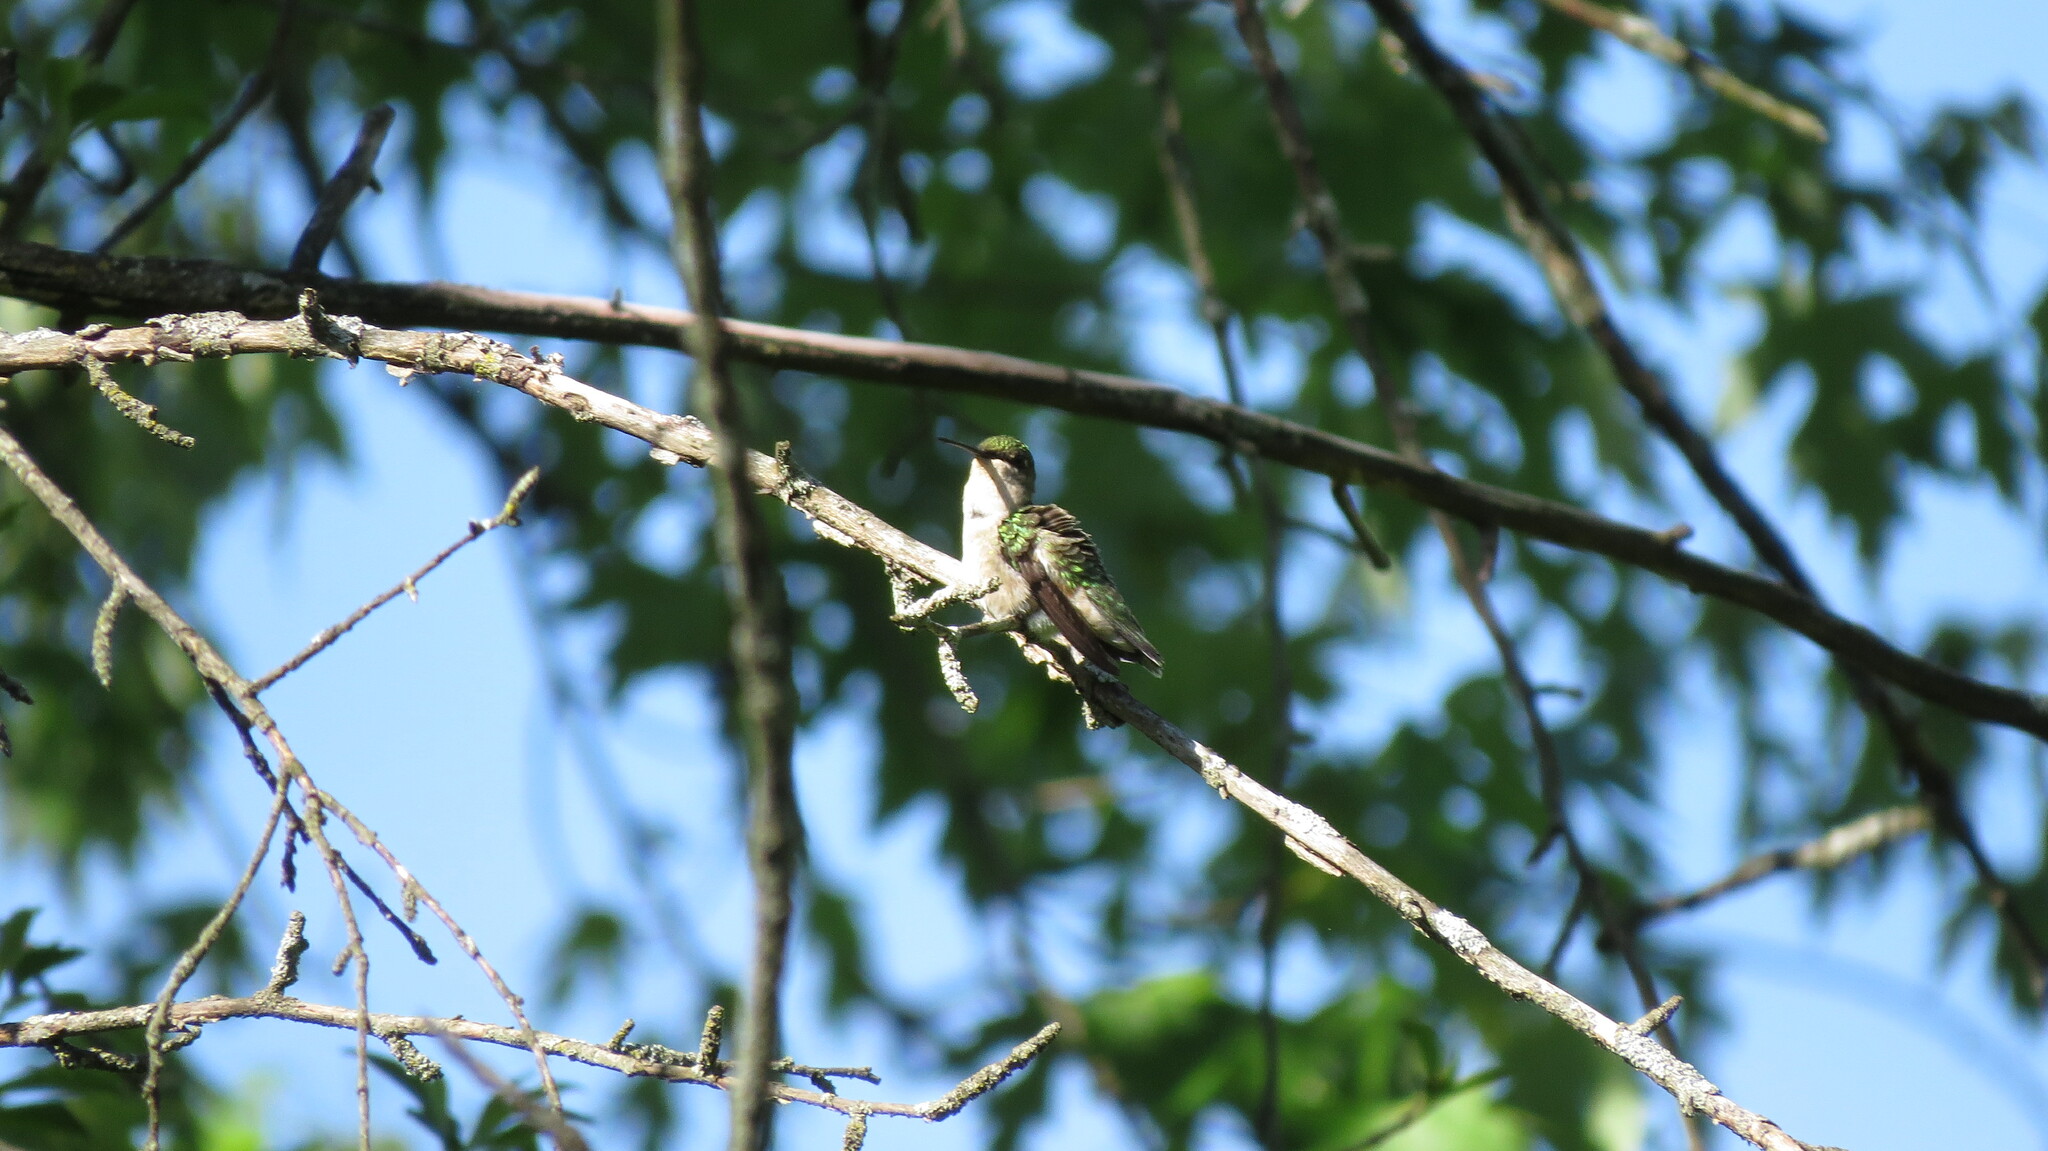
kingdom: Animalia
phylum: Chordata
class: Aves
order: Apodiformes
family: Trochilidae
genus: Archilochus
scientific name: Archilochus colubris
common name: Ruby-throated hummingbird
